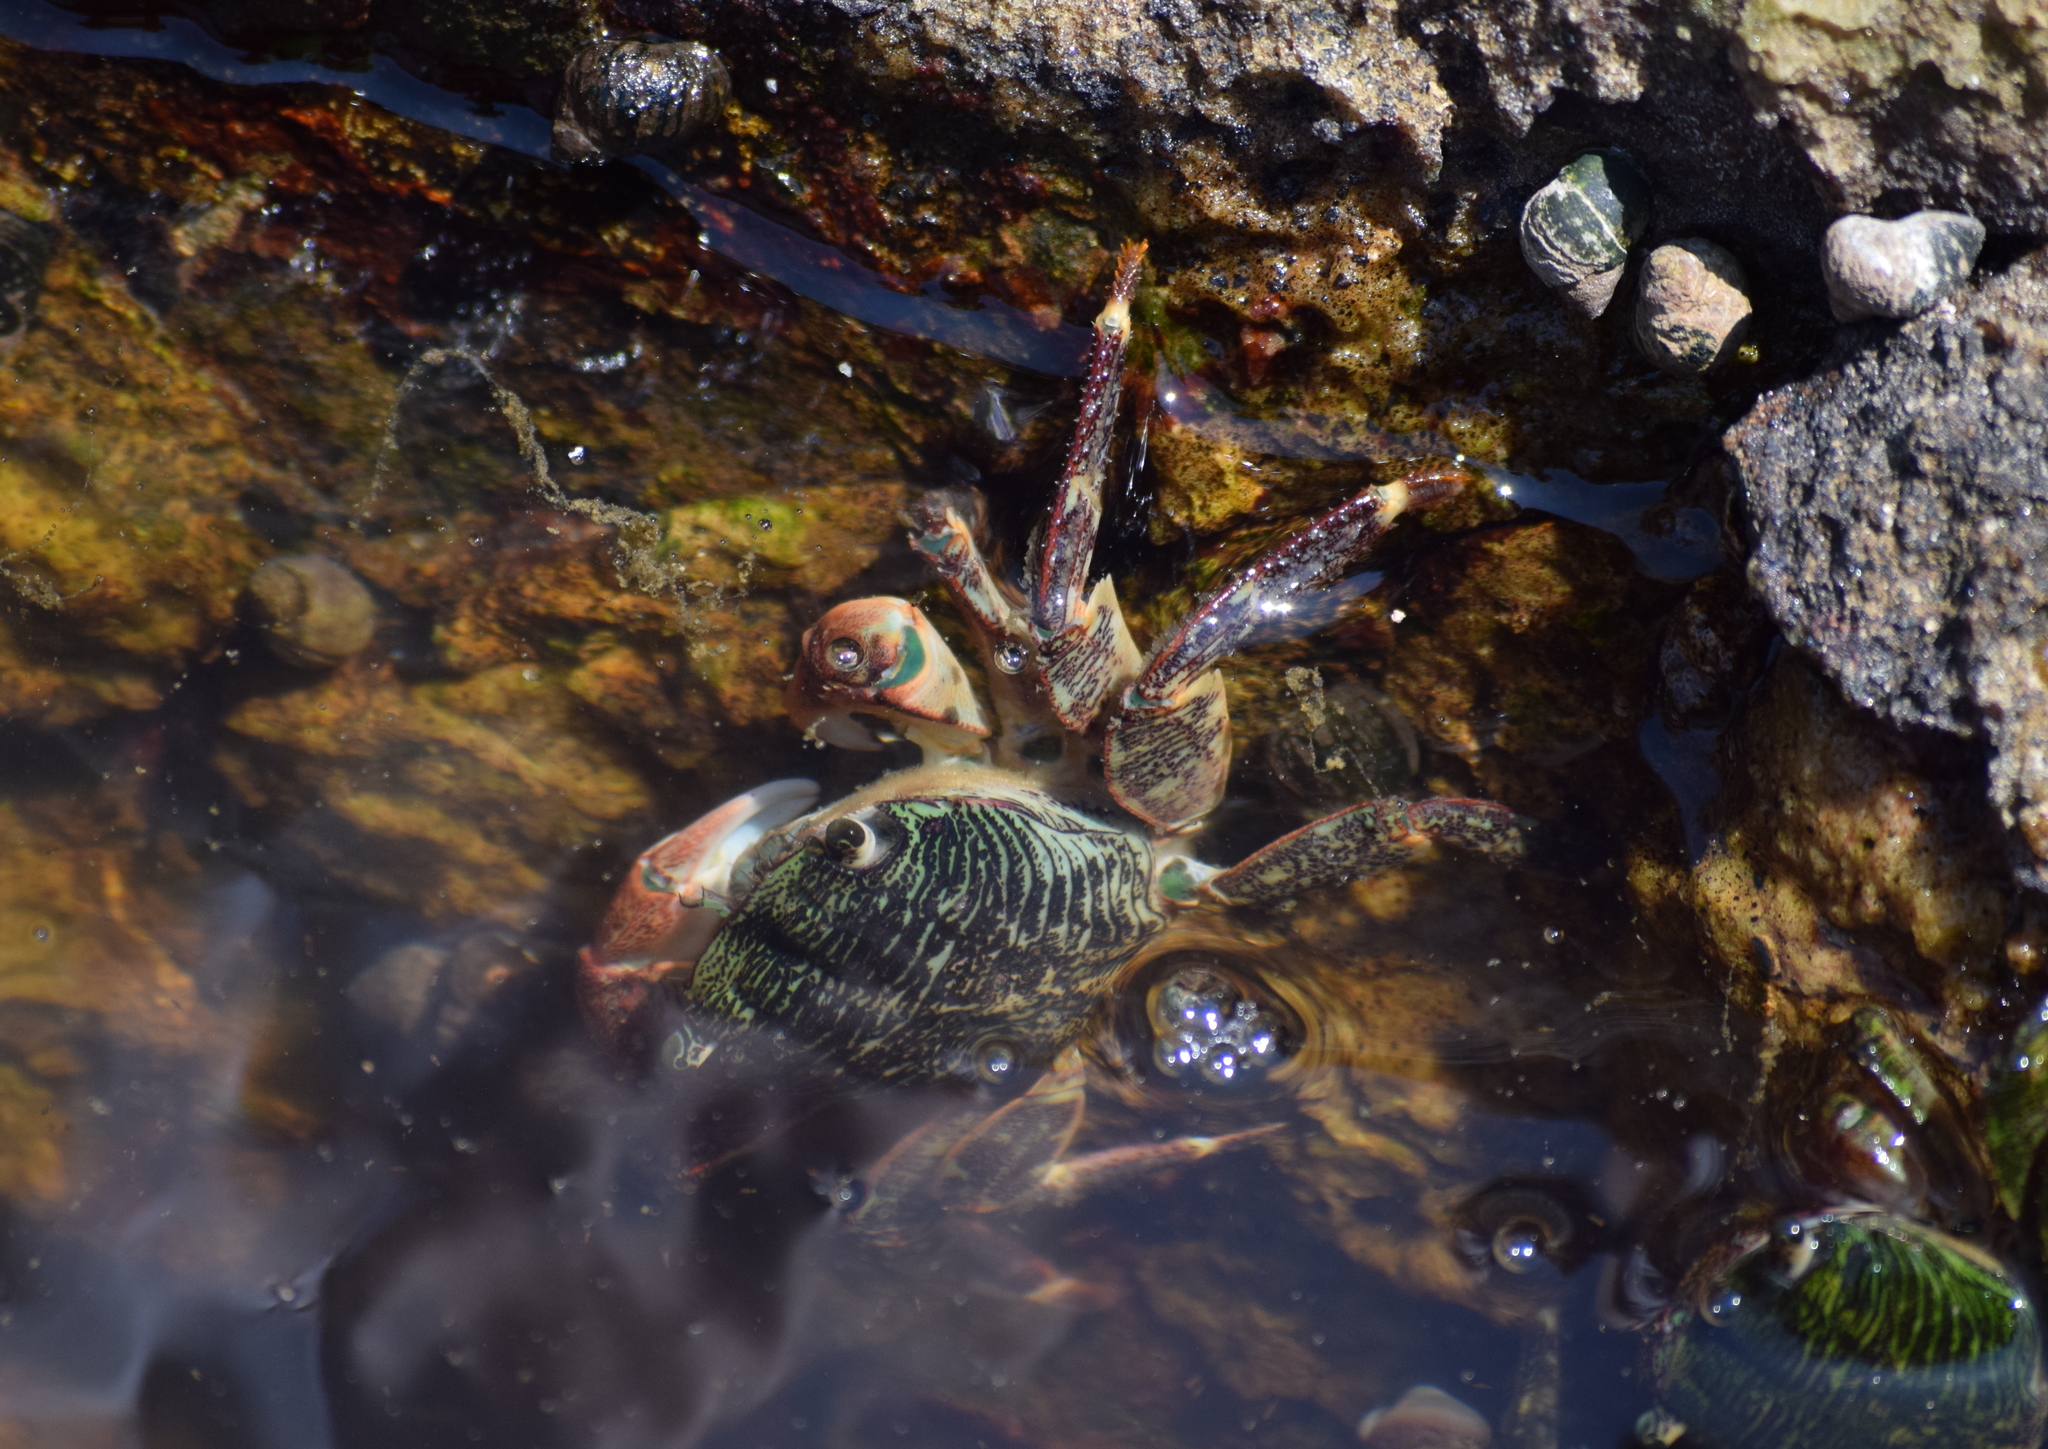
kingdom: Animalia
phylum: Arthropoda
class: Malacostraca
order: Decapoda
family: Grapsidae
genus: Pachygrapsus
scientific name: Pachygrapsus crassipes
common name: Striped shore crab
